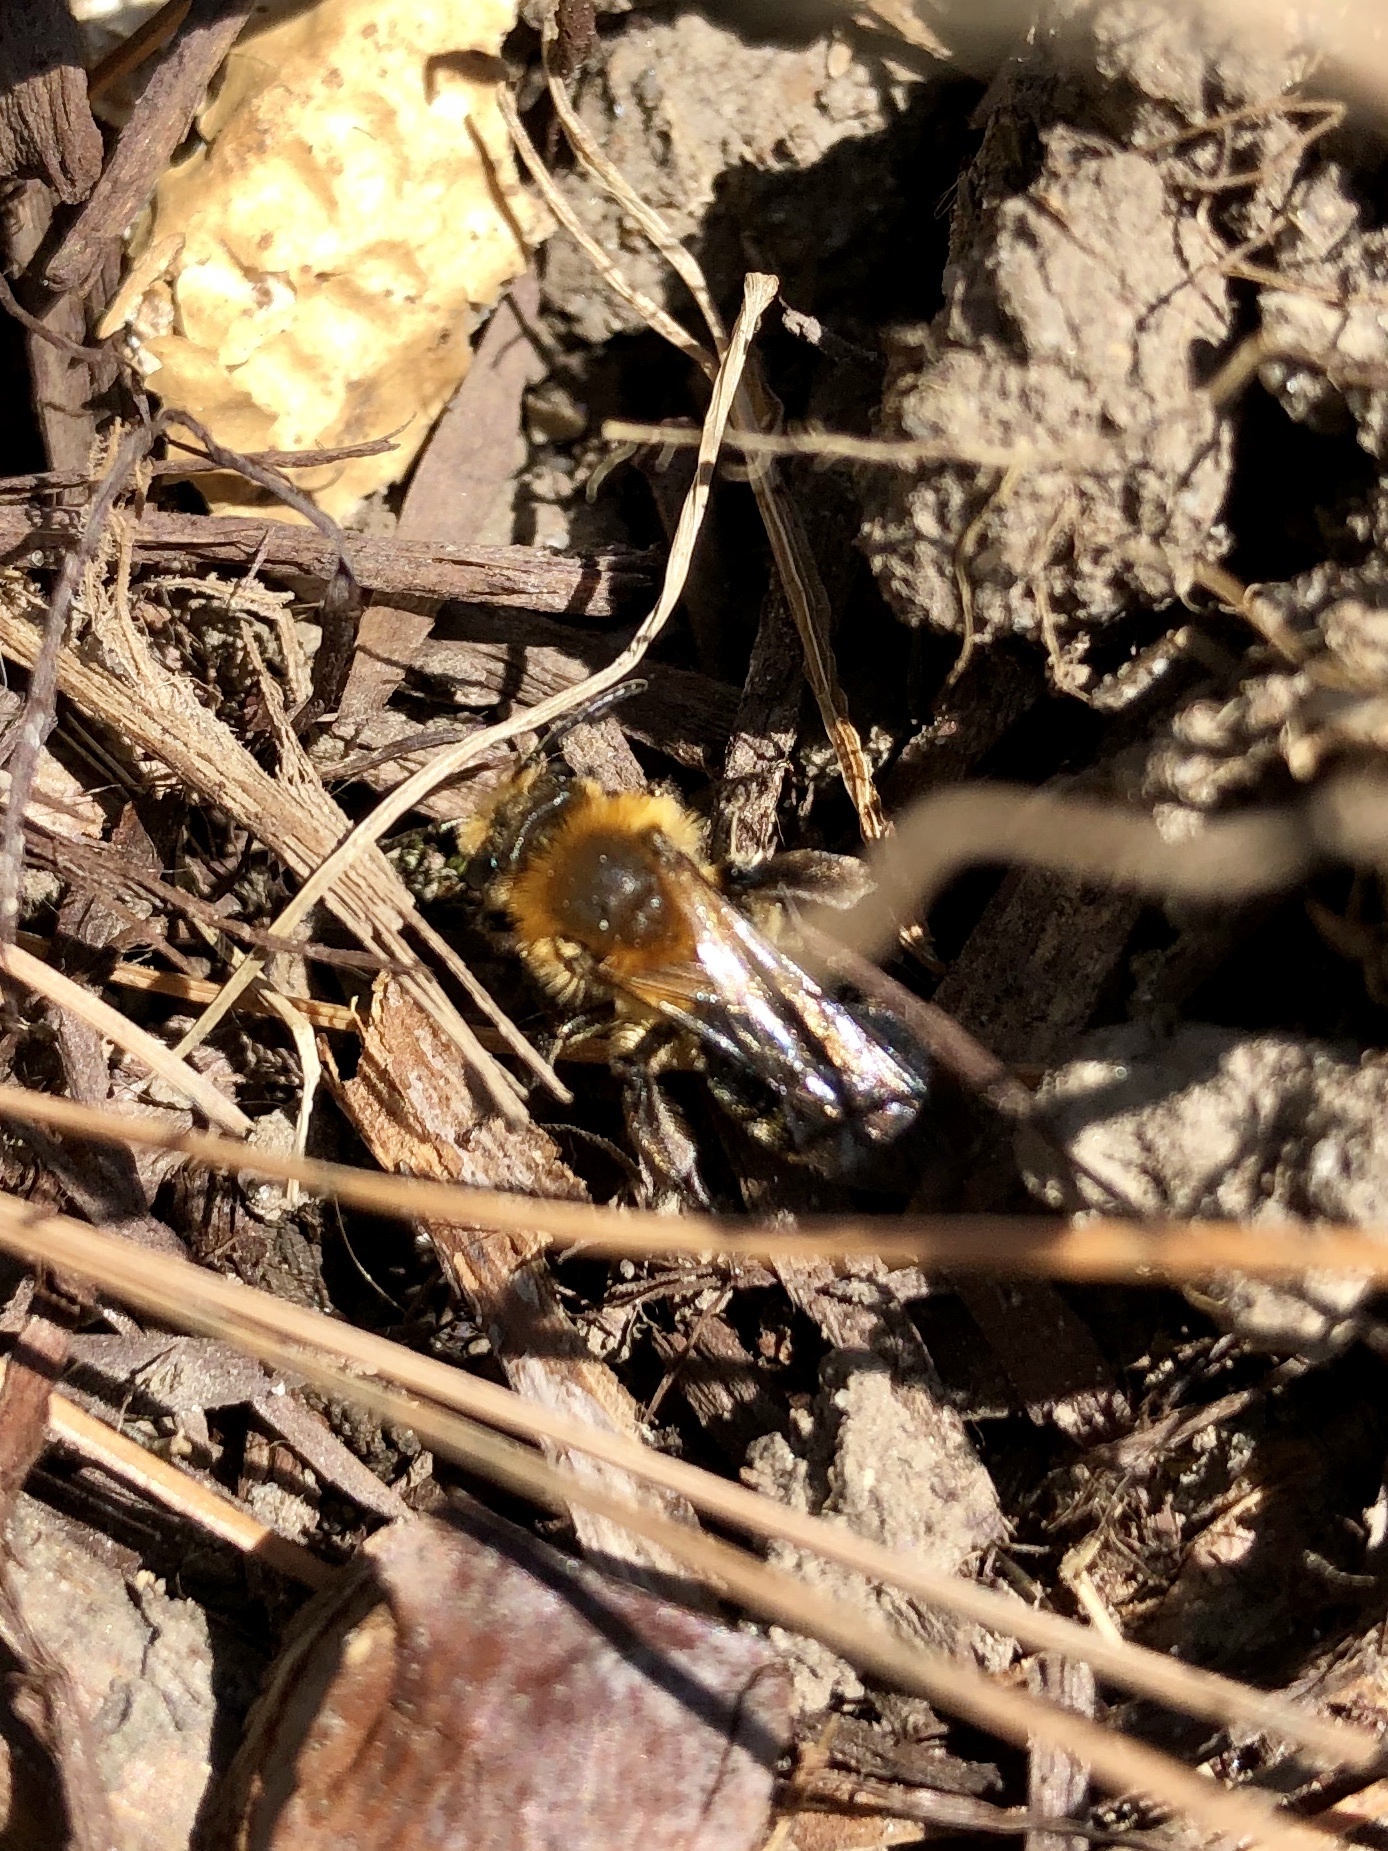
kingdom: Animalia
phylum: Arthropoda
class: Insecta
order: Hymenoptera
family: Andrenidae
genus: Andrena
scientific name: Andrena dunningi
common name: Dunning's miner
